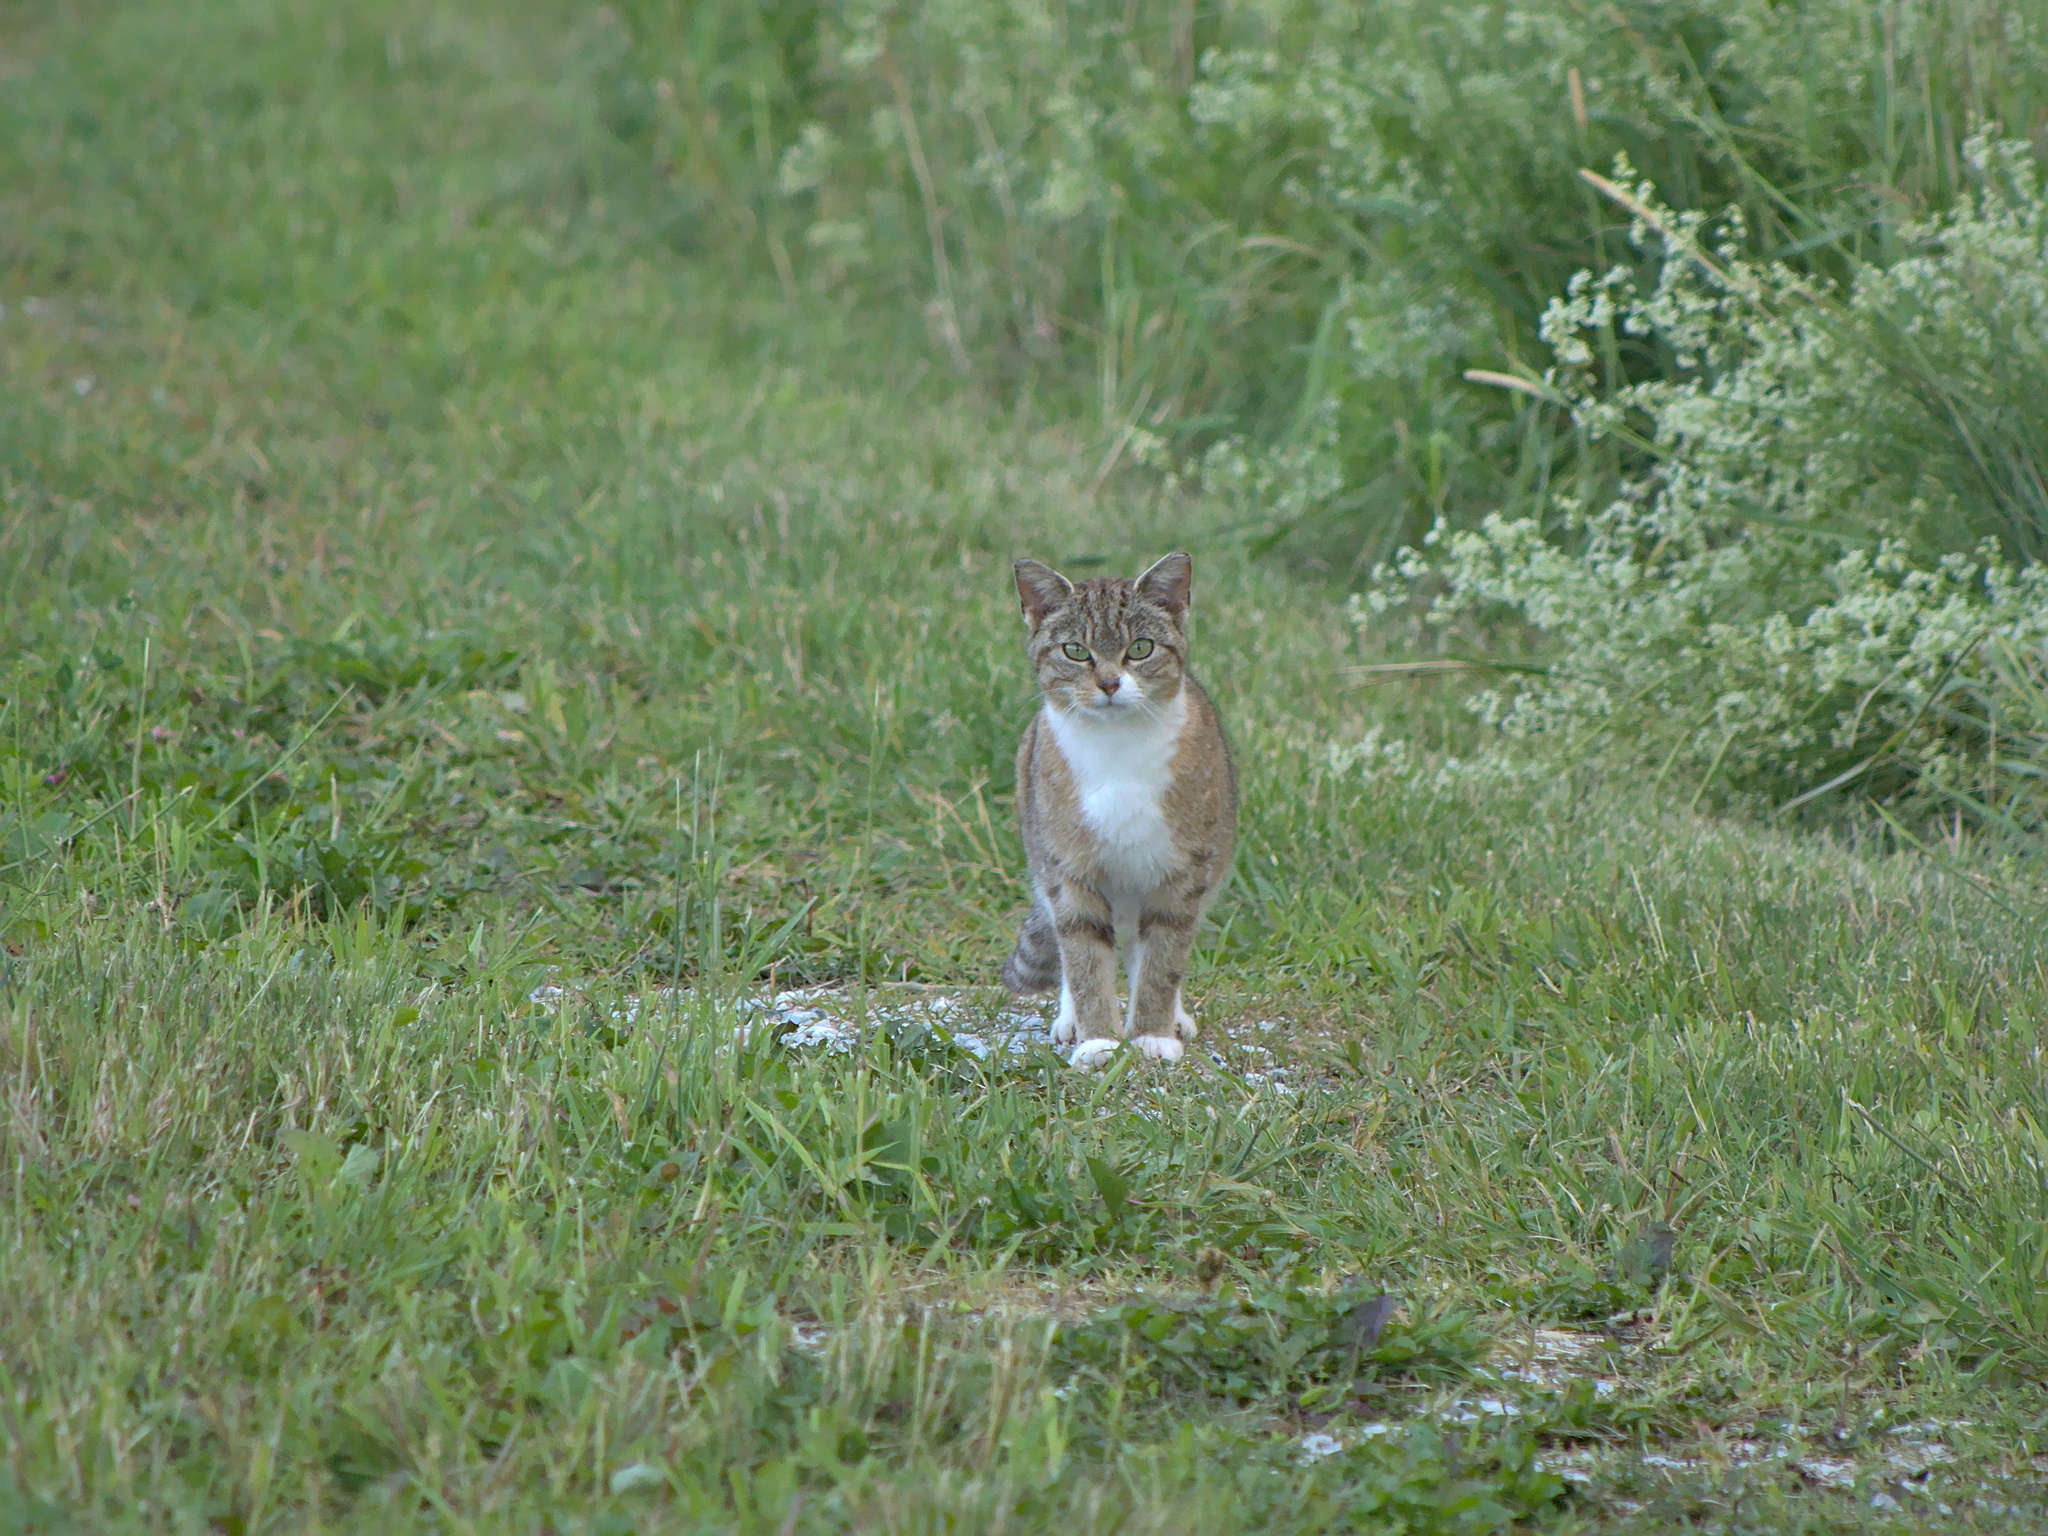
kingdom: Animalia
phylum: Chordata
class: Mammalia
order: Carnivora
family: Felidae
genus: Felis
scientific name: Felis catus
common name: Domestic cat
